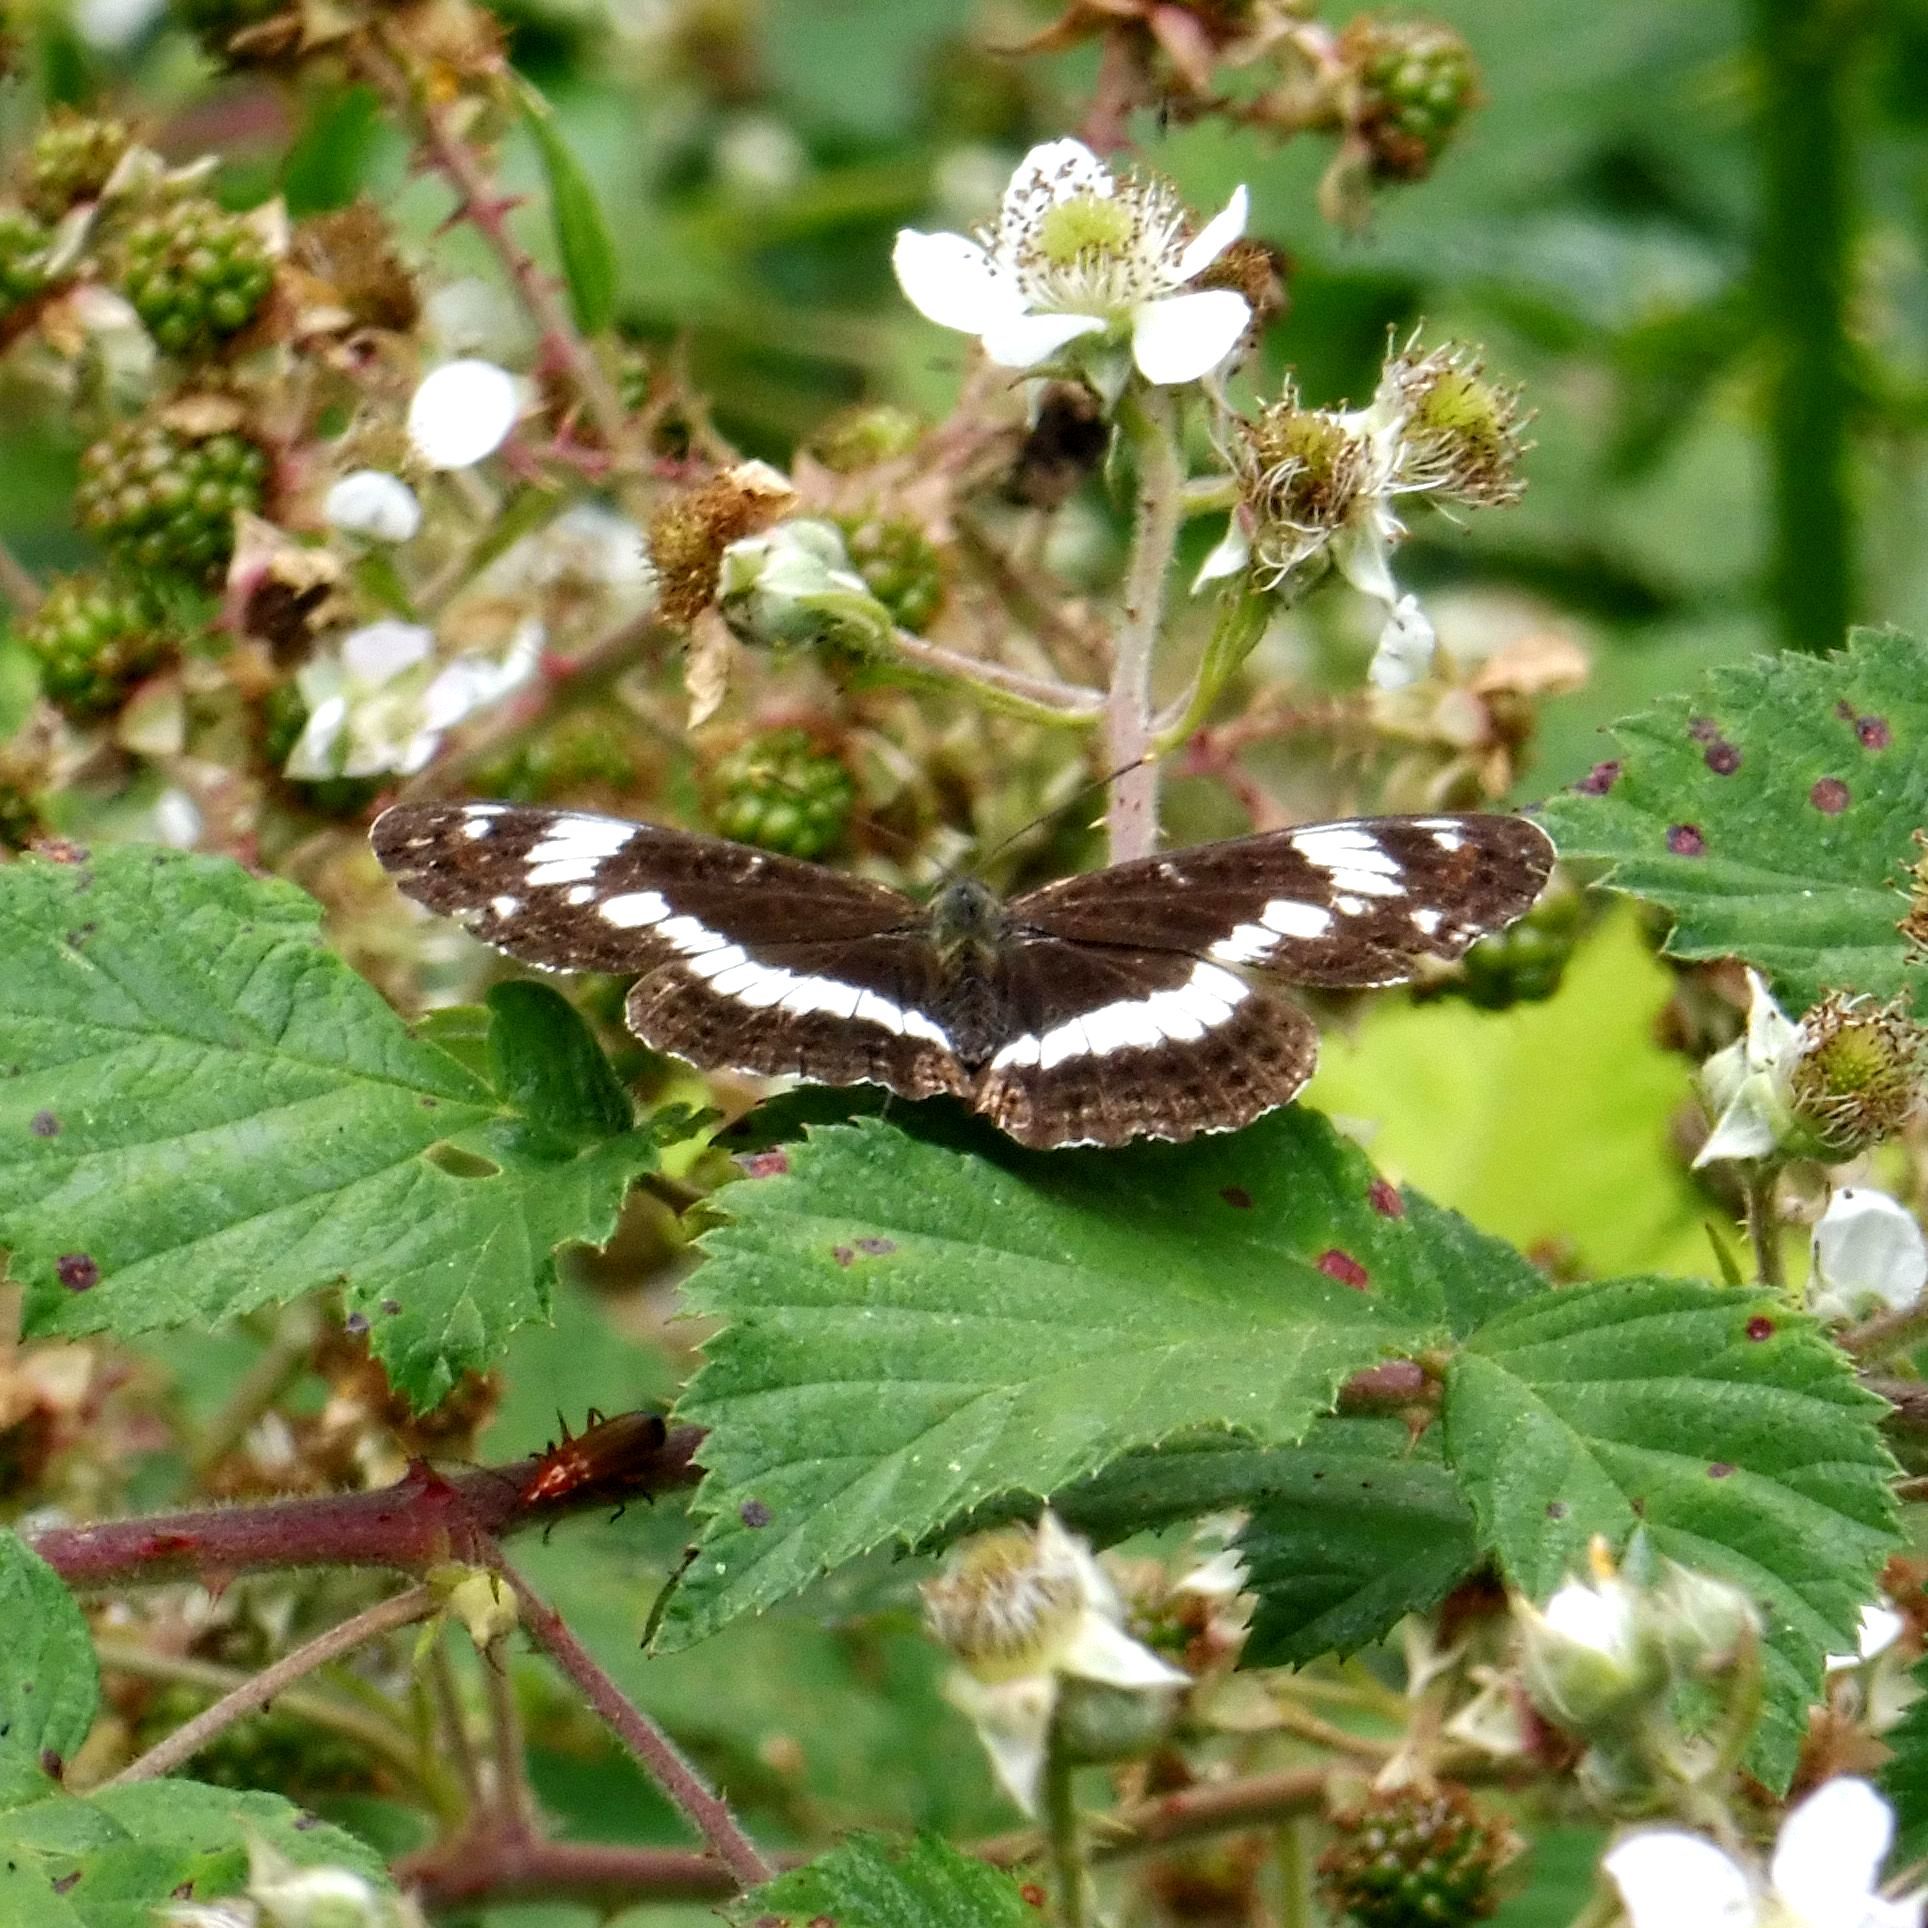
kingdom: Animalia
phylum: Arthropoda
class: Insecta
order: Lepidoptera
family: Nymphalidae
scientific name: Nymphalidae
